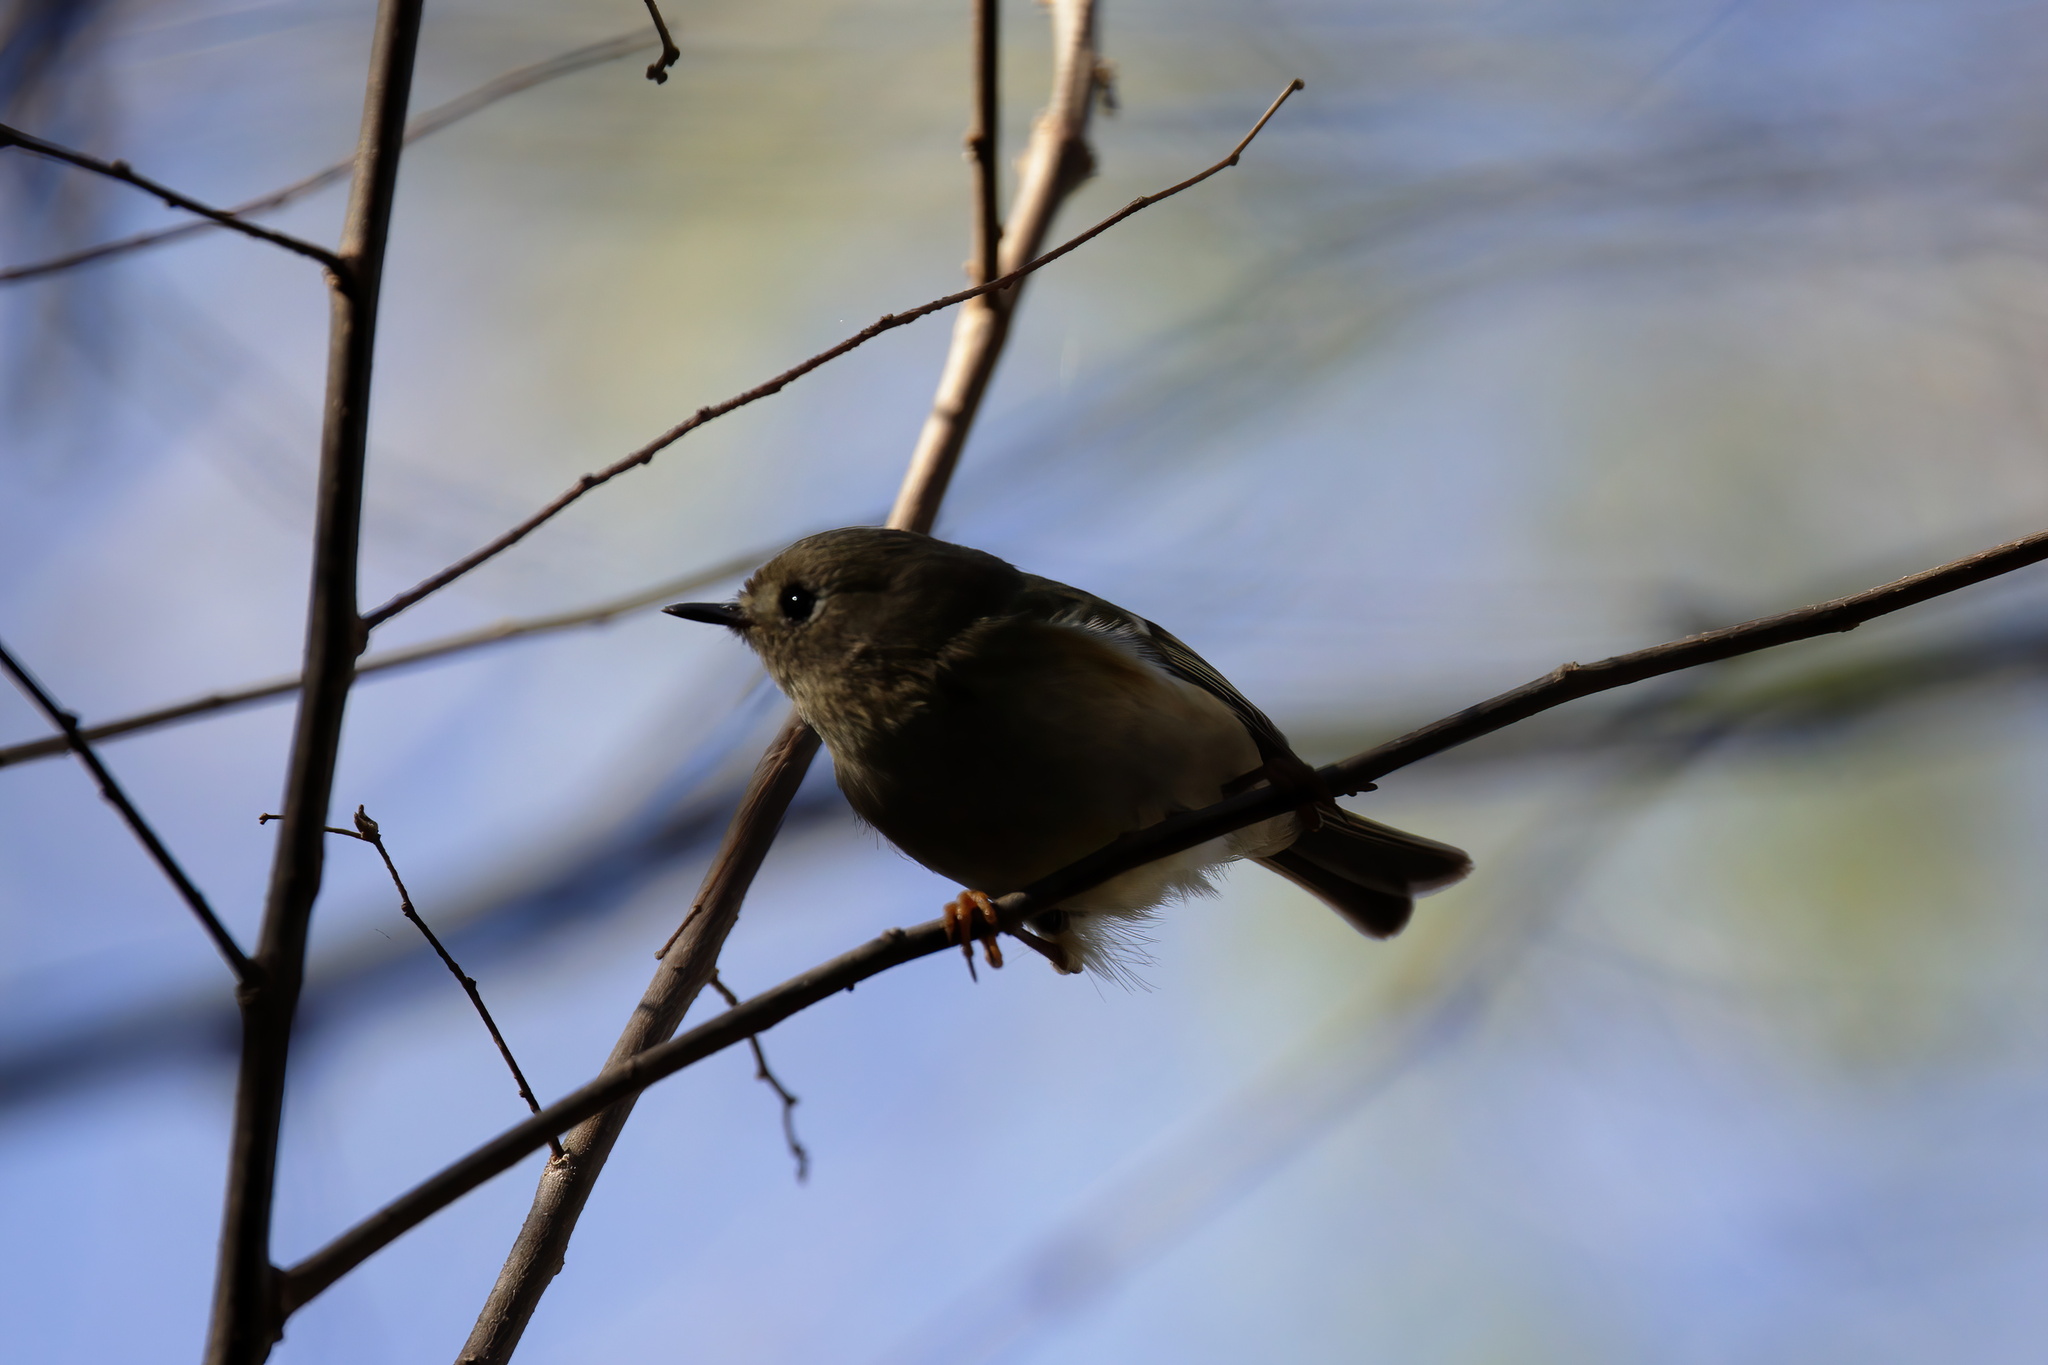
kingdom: Animalia
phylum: Chordata
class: Aves
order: Passeriformes
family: Regulidae
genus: Regulus
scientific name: Regulus calendula
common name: Ruby-crowned kinglet
